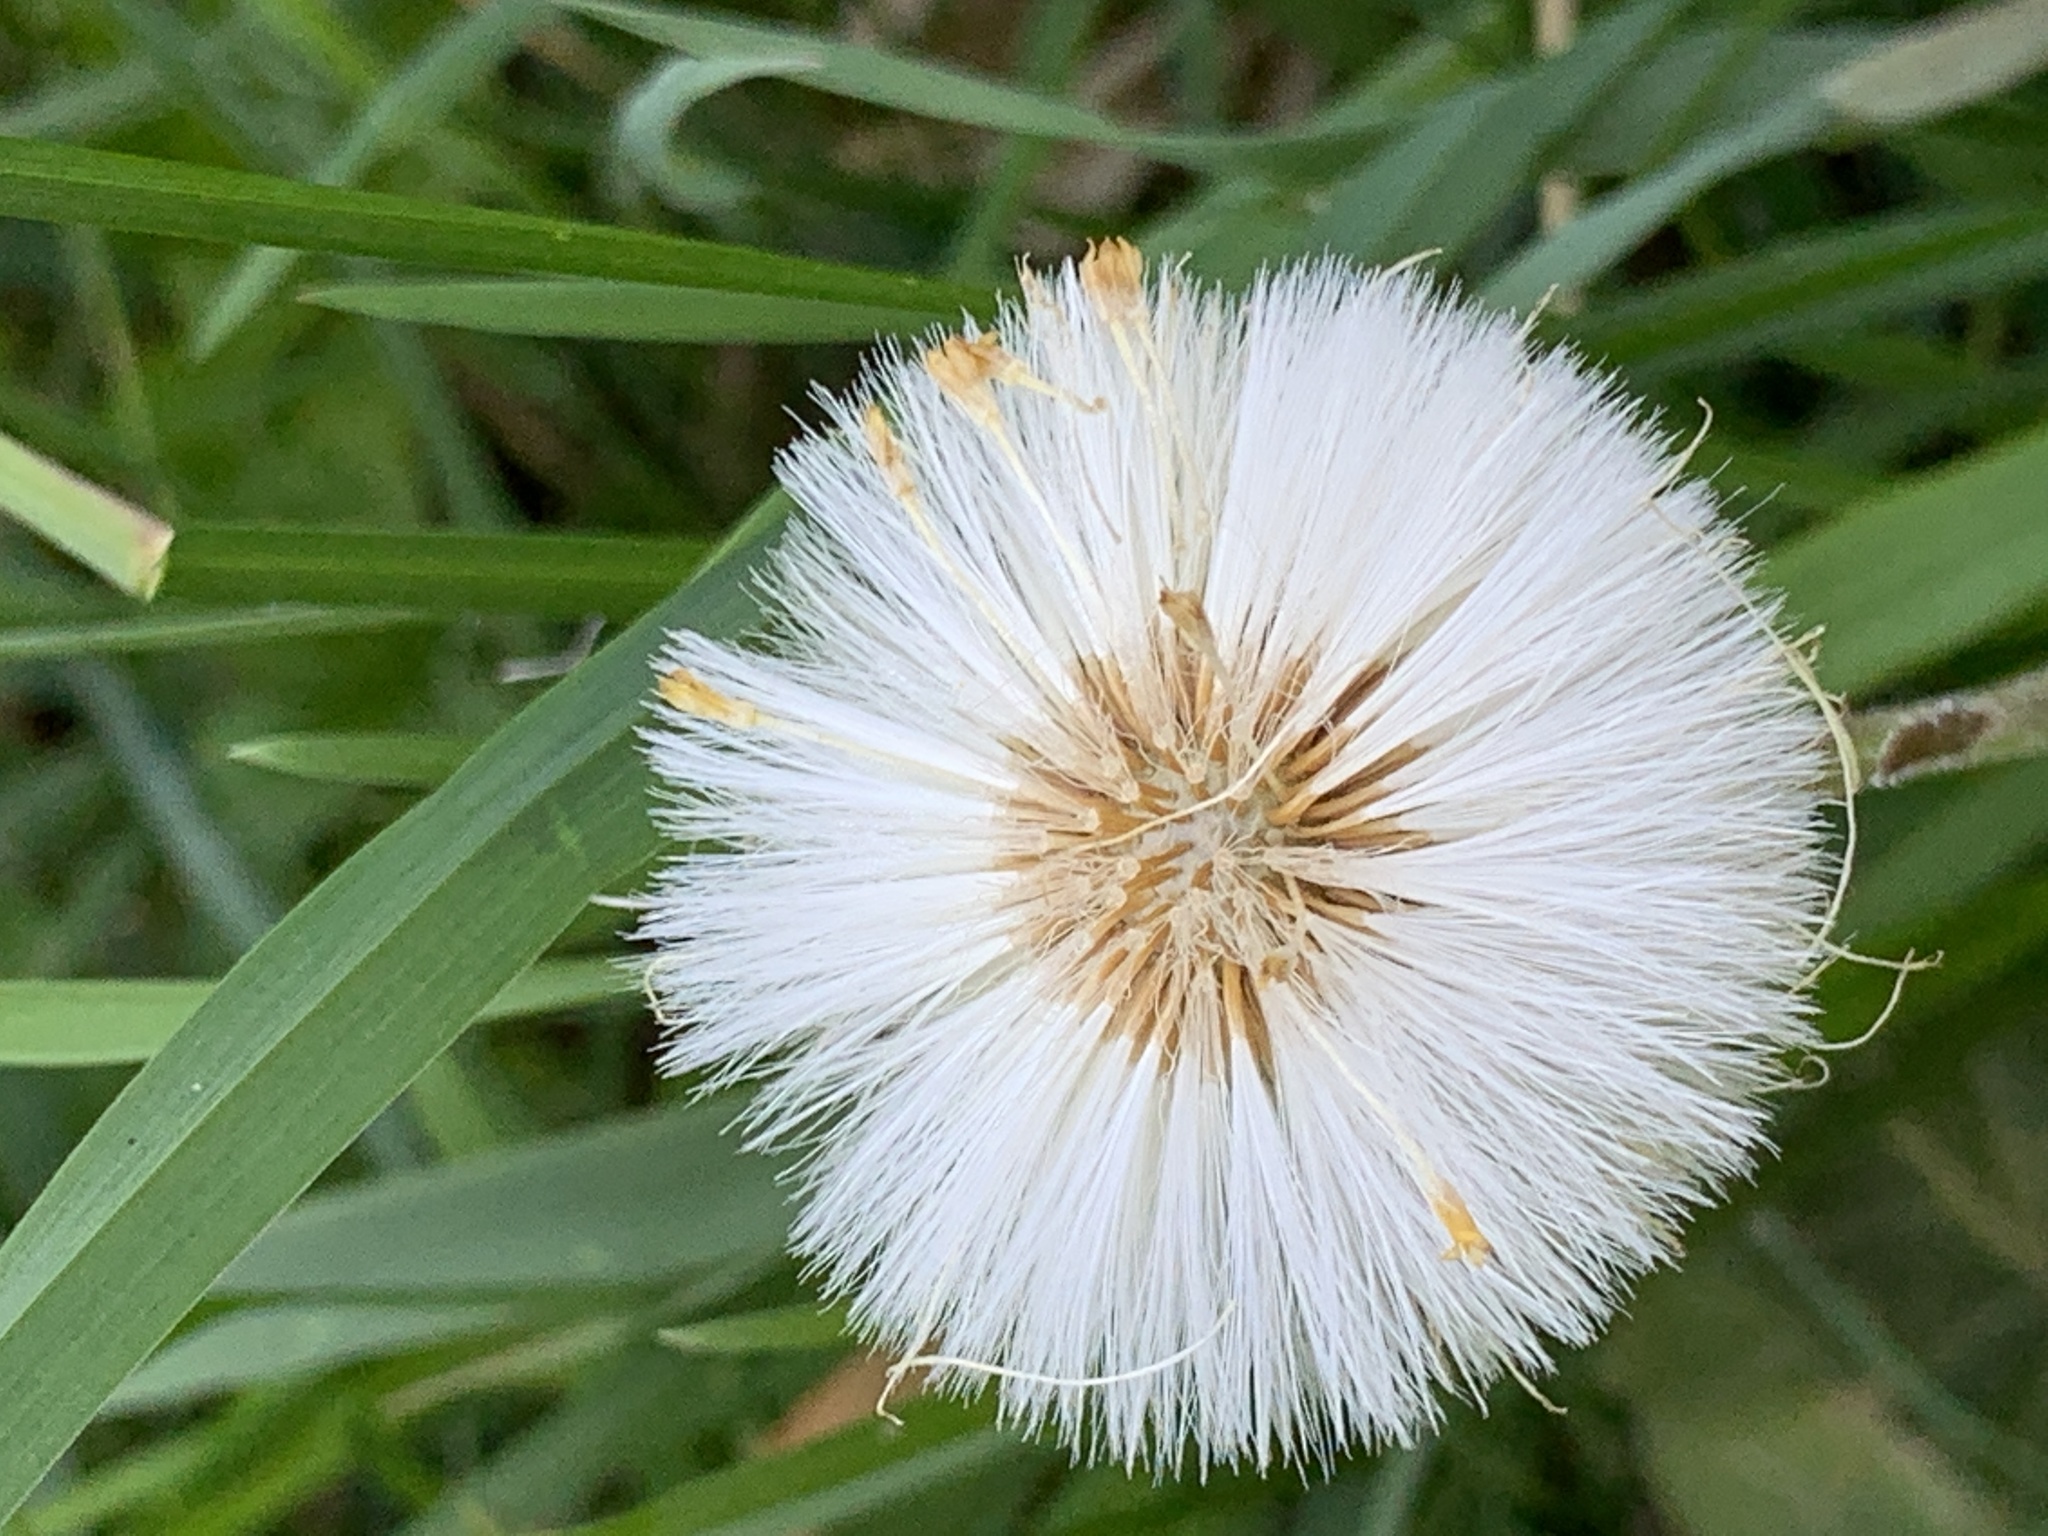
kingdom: Plantae
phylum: Tracheophyta
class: Magnoliopsida
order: Asterales
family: Asteraceae
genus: Tussilago
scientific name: Tussilago farfara
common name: Coltsfoot
